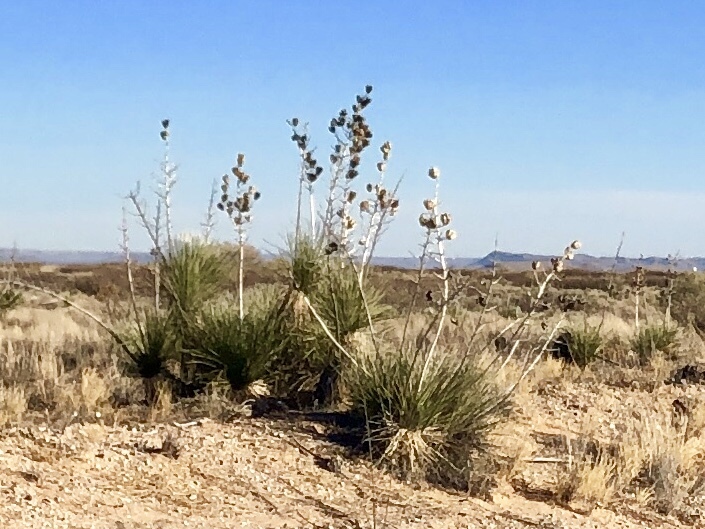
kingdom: Plantae
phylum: Tracheophyta
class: Liliopsida
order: Asparagales
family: Asparagaceae
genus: Yucca
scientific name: Yucca elata
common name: Palmella
